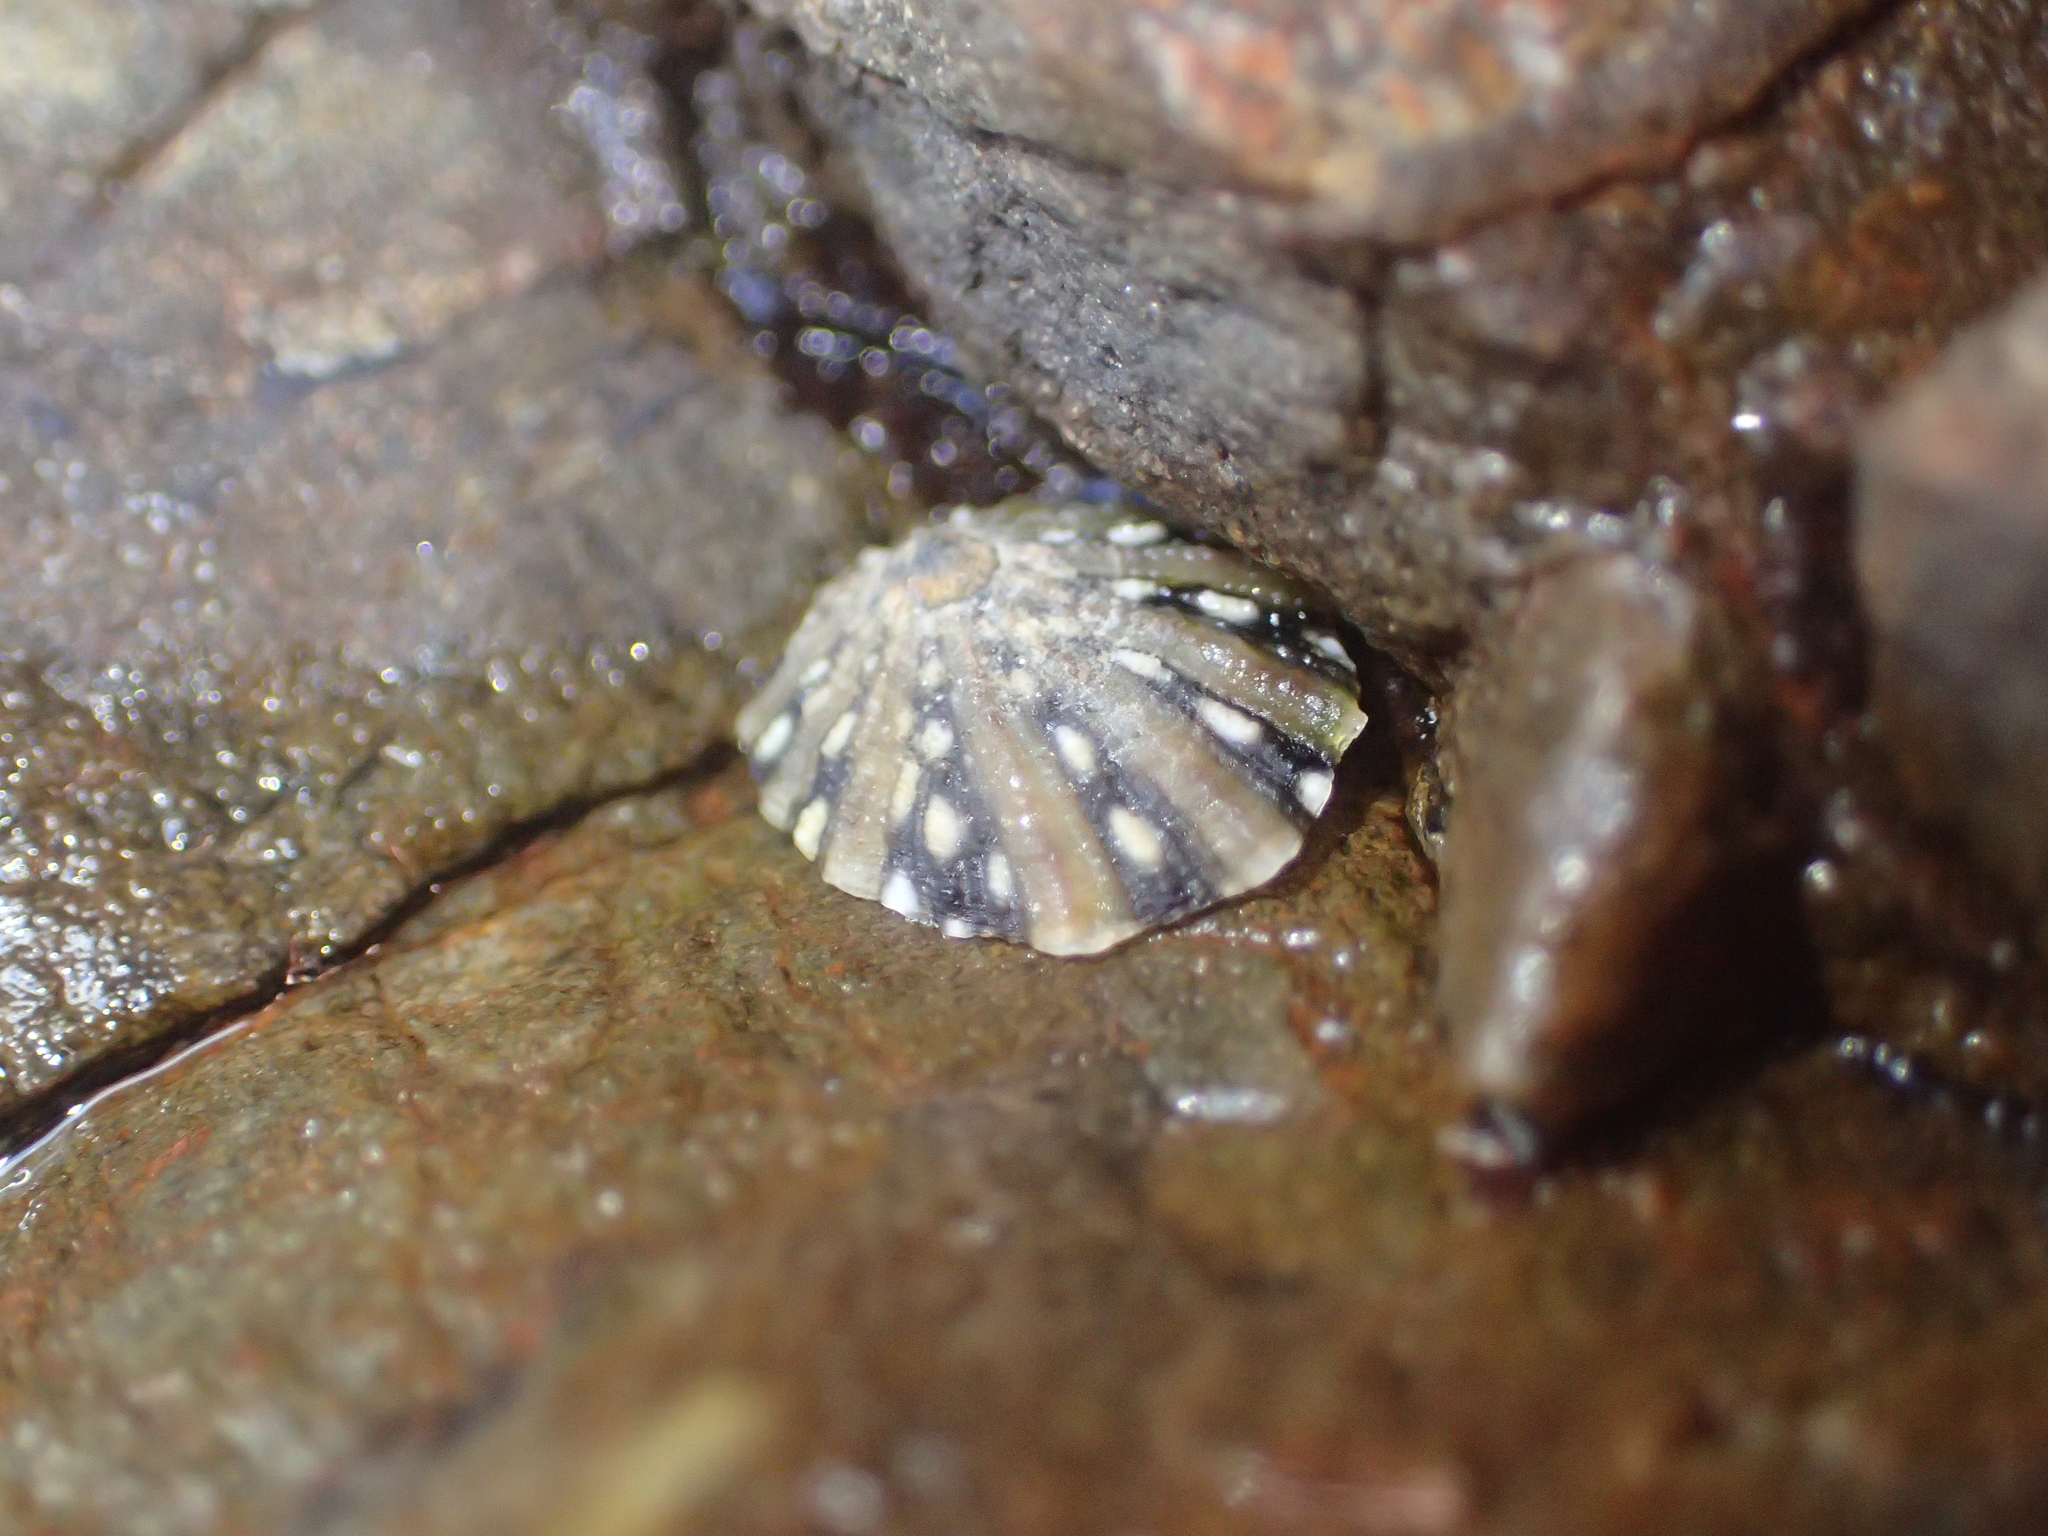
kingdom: Animalia
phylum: Mollusca
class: Gastropoda
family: Nacellidae
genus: Cellana
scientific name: Cellana ornata
